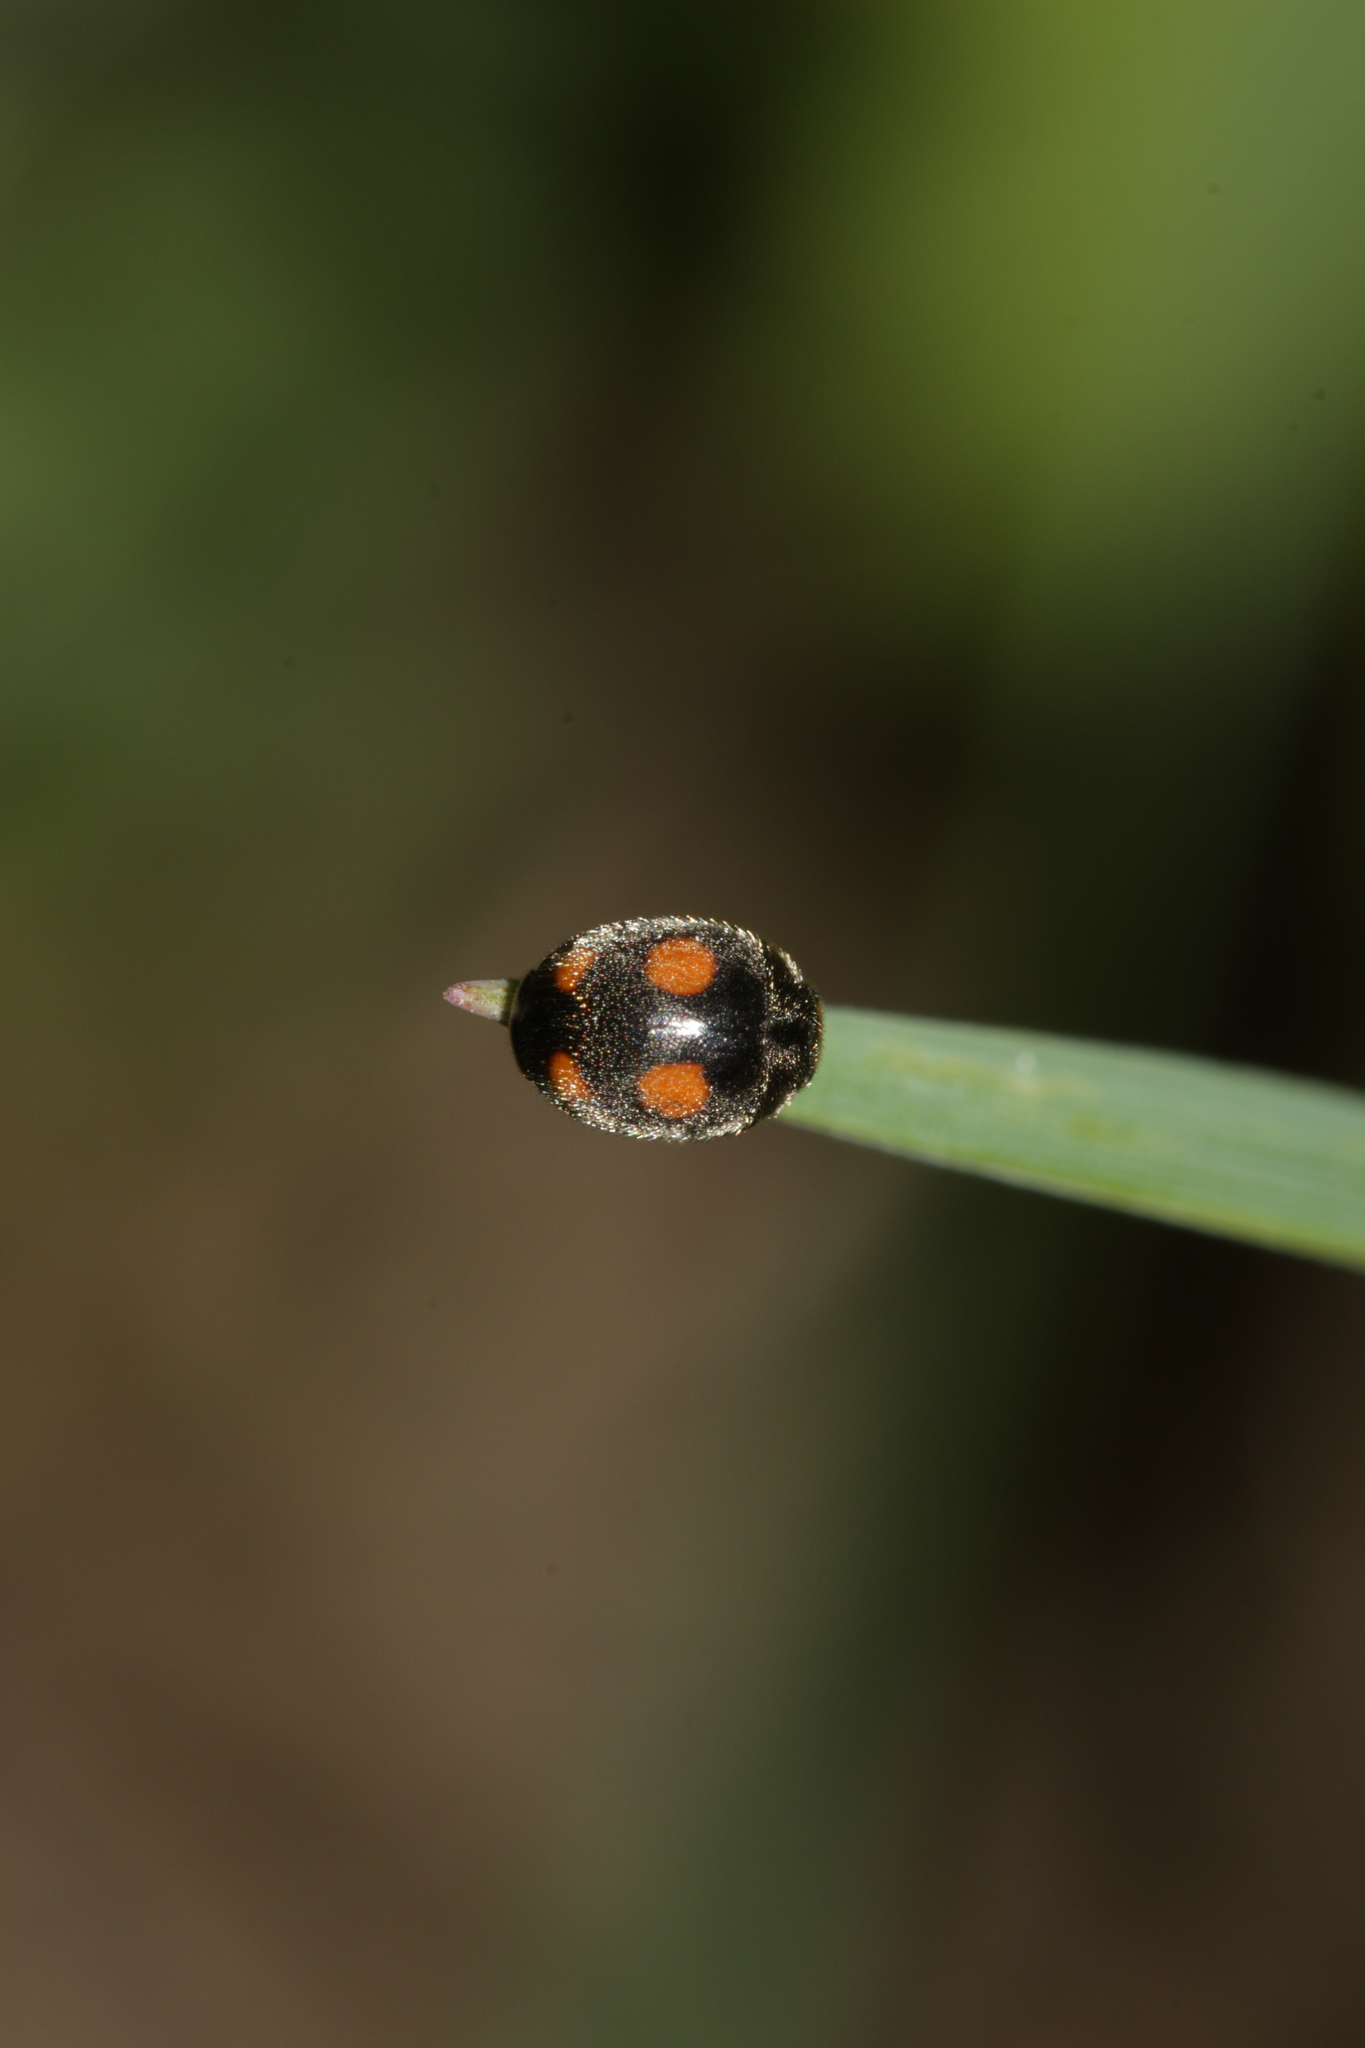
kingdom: Animalia
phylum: Arthropoda
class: Insecta
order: Coleoptera
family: Coccinellidae
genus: Platynaspis
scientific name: Platynaspis luteorubra
